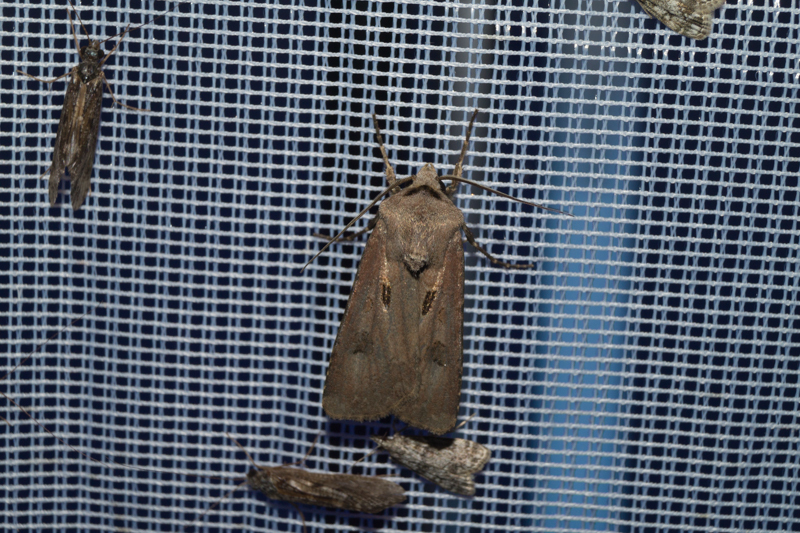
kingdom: Animalia
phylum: Arthropoda
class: Insecta
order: Lepidoptera
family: Noctuidae
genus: Agrotis
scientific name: Agrotis exclamationis
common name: Heart and dart
